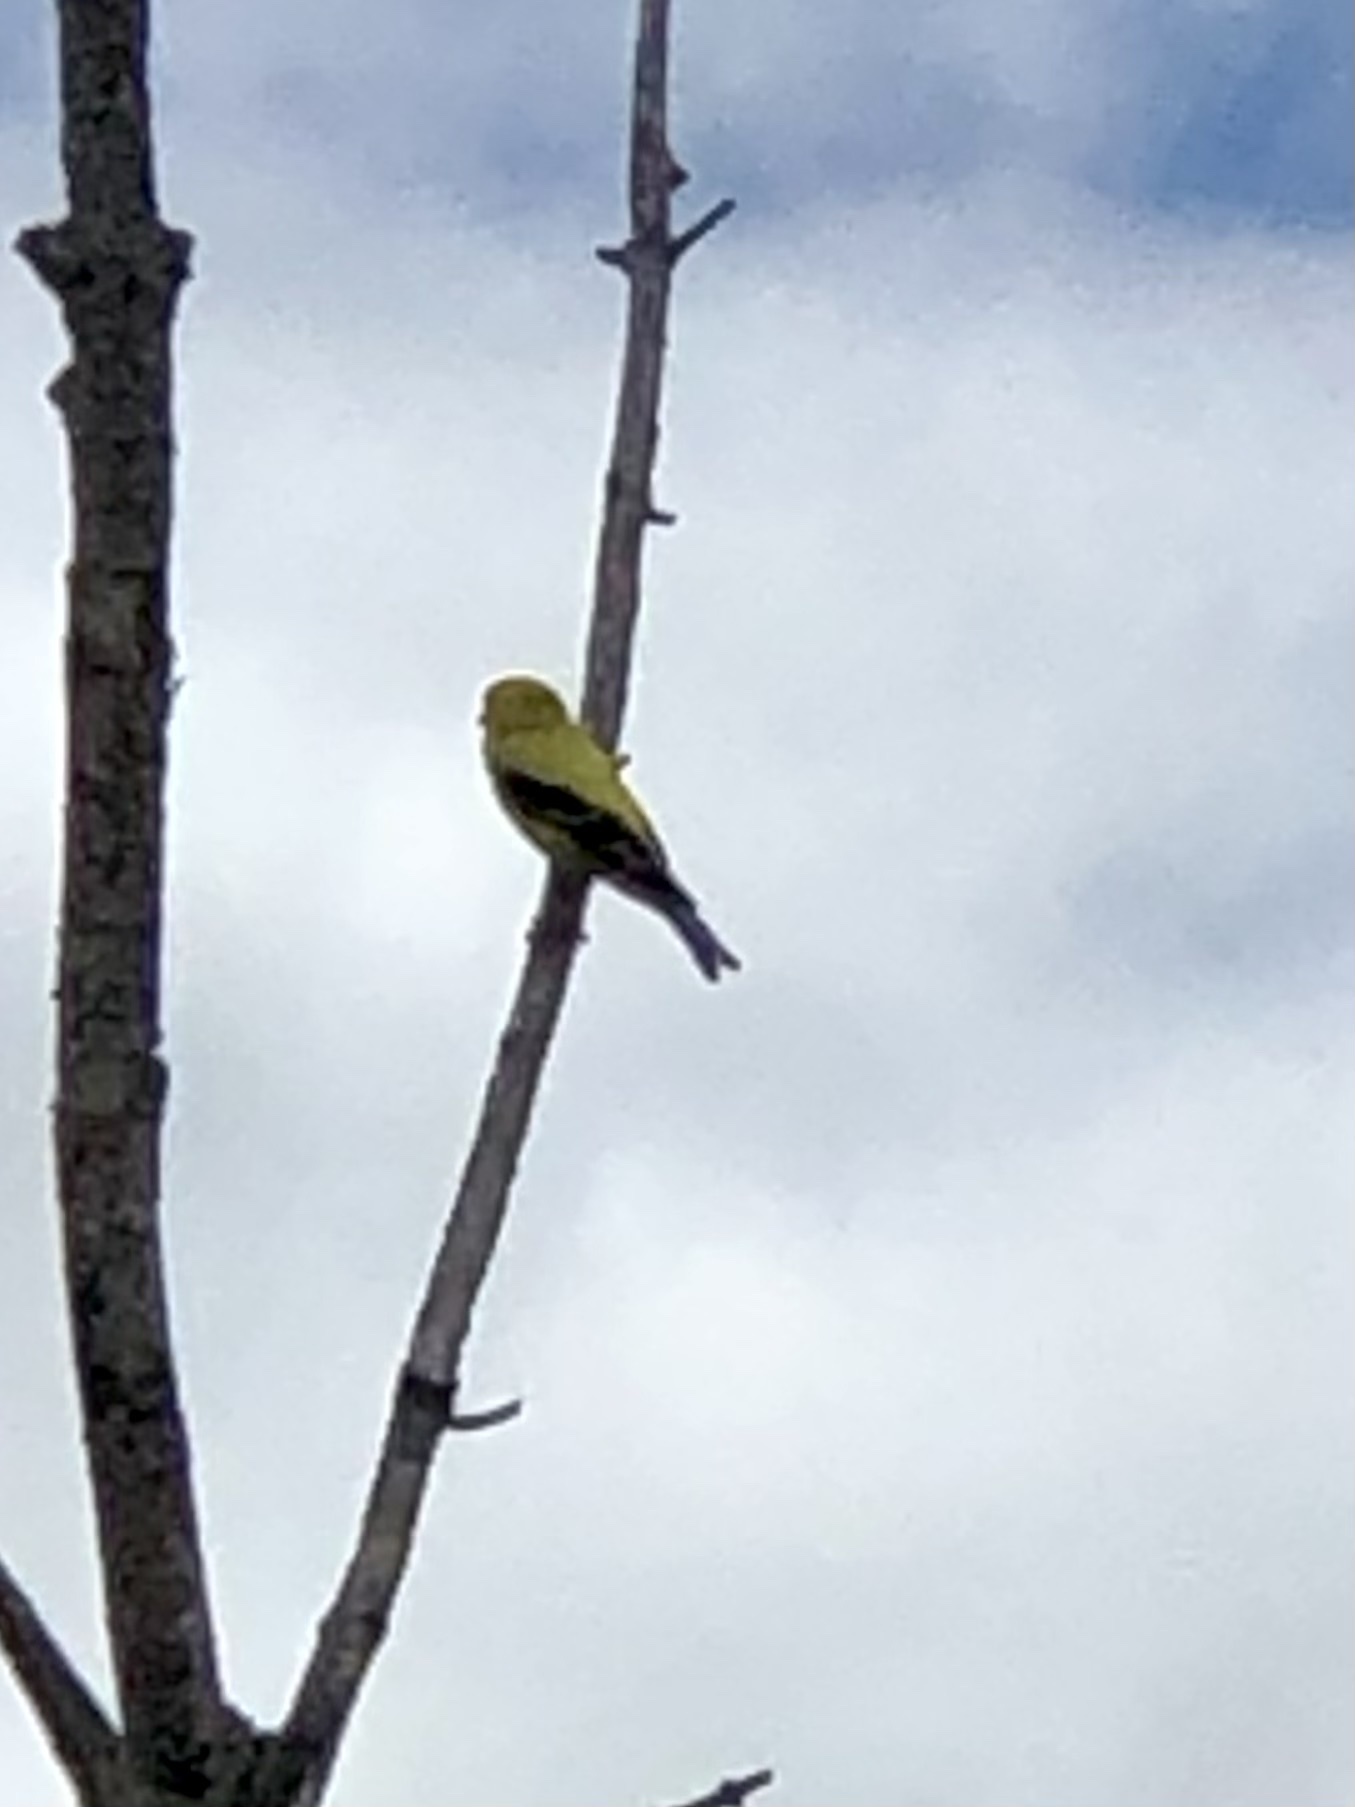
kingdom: Animalia
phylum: Chordata
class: Aves
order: Passeriformes
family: Fringillidae
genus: Spinus
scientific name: Spinus tristis
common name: American goldfinch
